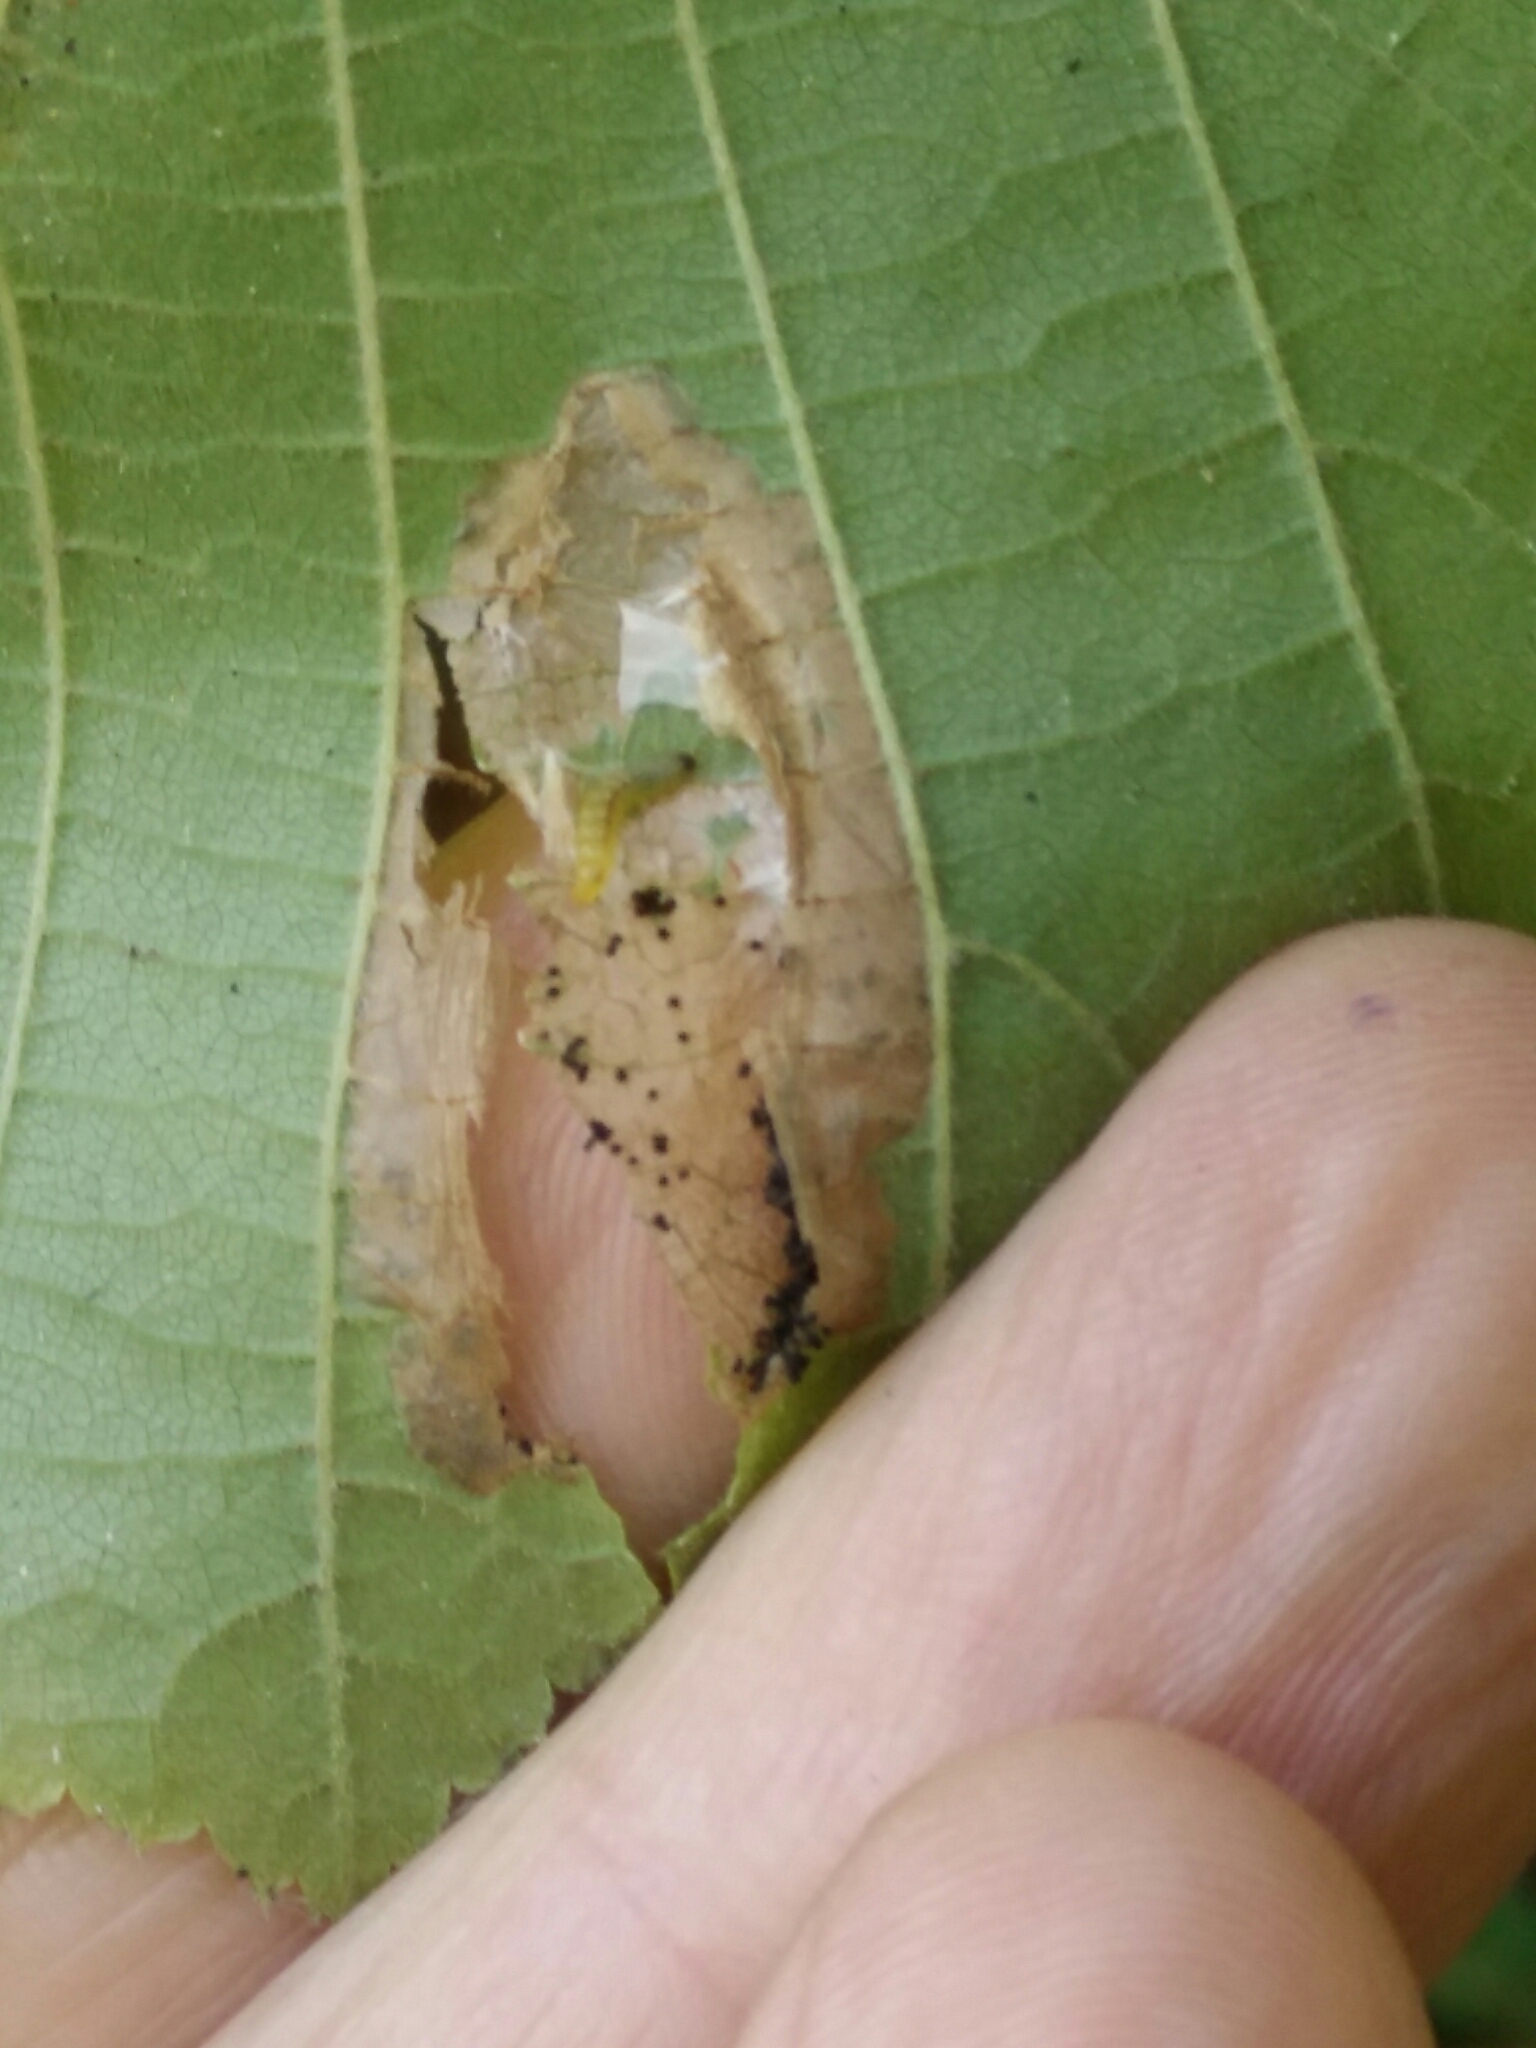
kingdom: Animalia
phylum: Arthropoda
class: Insecta
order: Lepidoptera
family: Nepticulidae
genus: Stigmella
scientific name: Stigmella microtheriella
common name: Nut-tree pigmy
